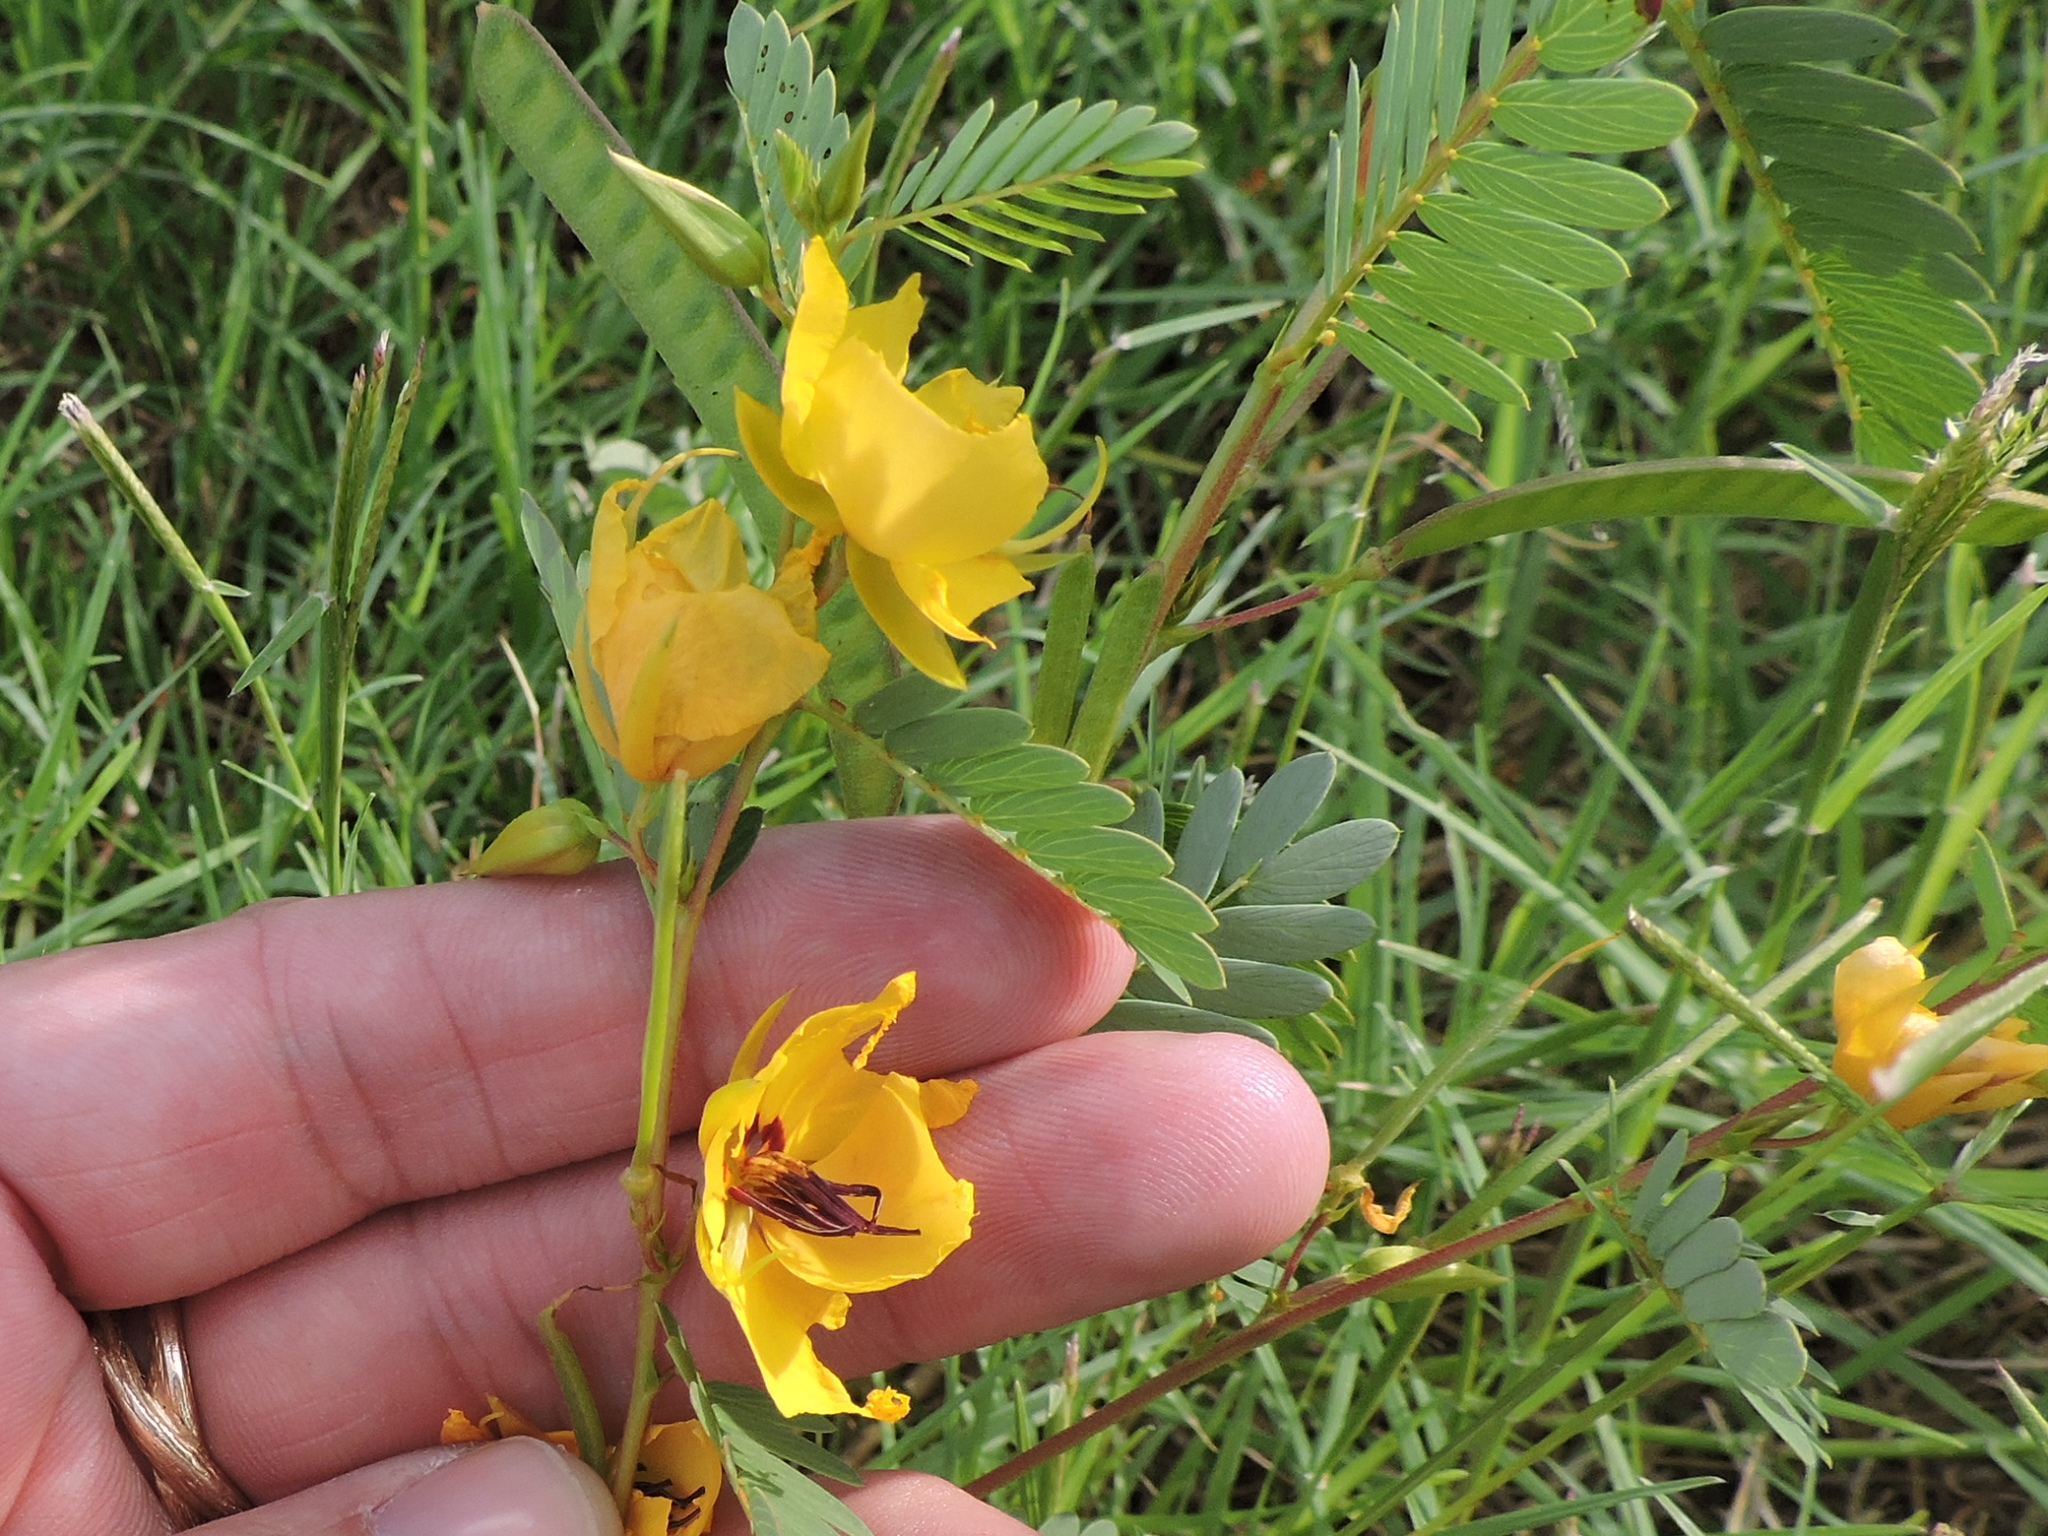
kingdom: Plantae
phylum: Tracheophyta
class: Magnoliopsida
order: Fabales
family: Fabaceae
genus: Chamaecrista
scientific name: Chamaecrista fasciculata
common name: Golden cassia
